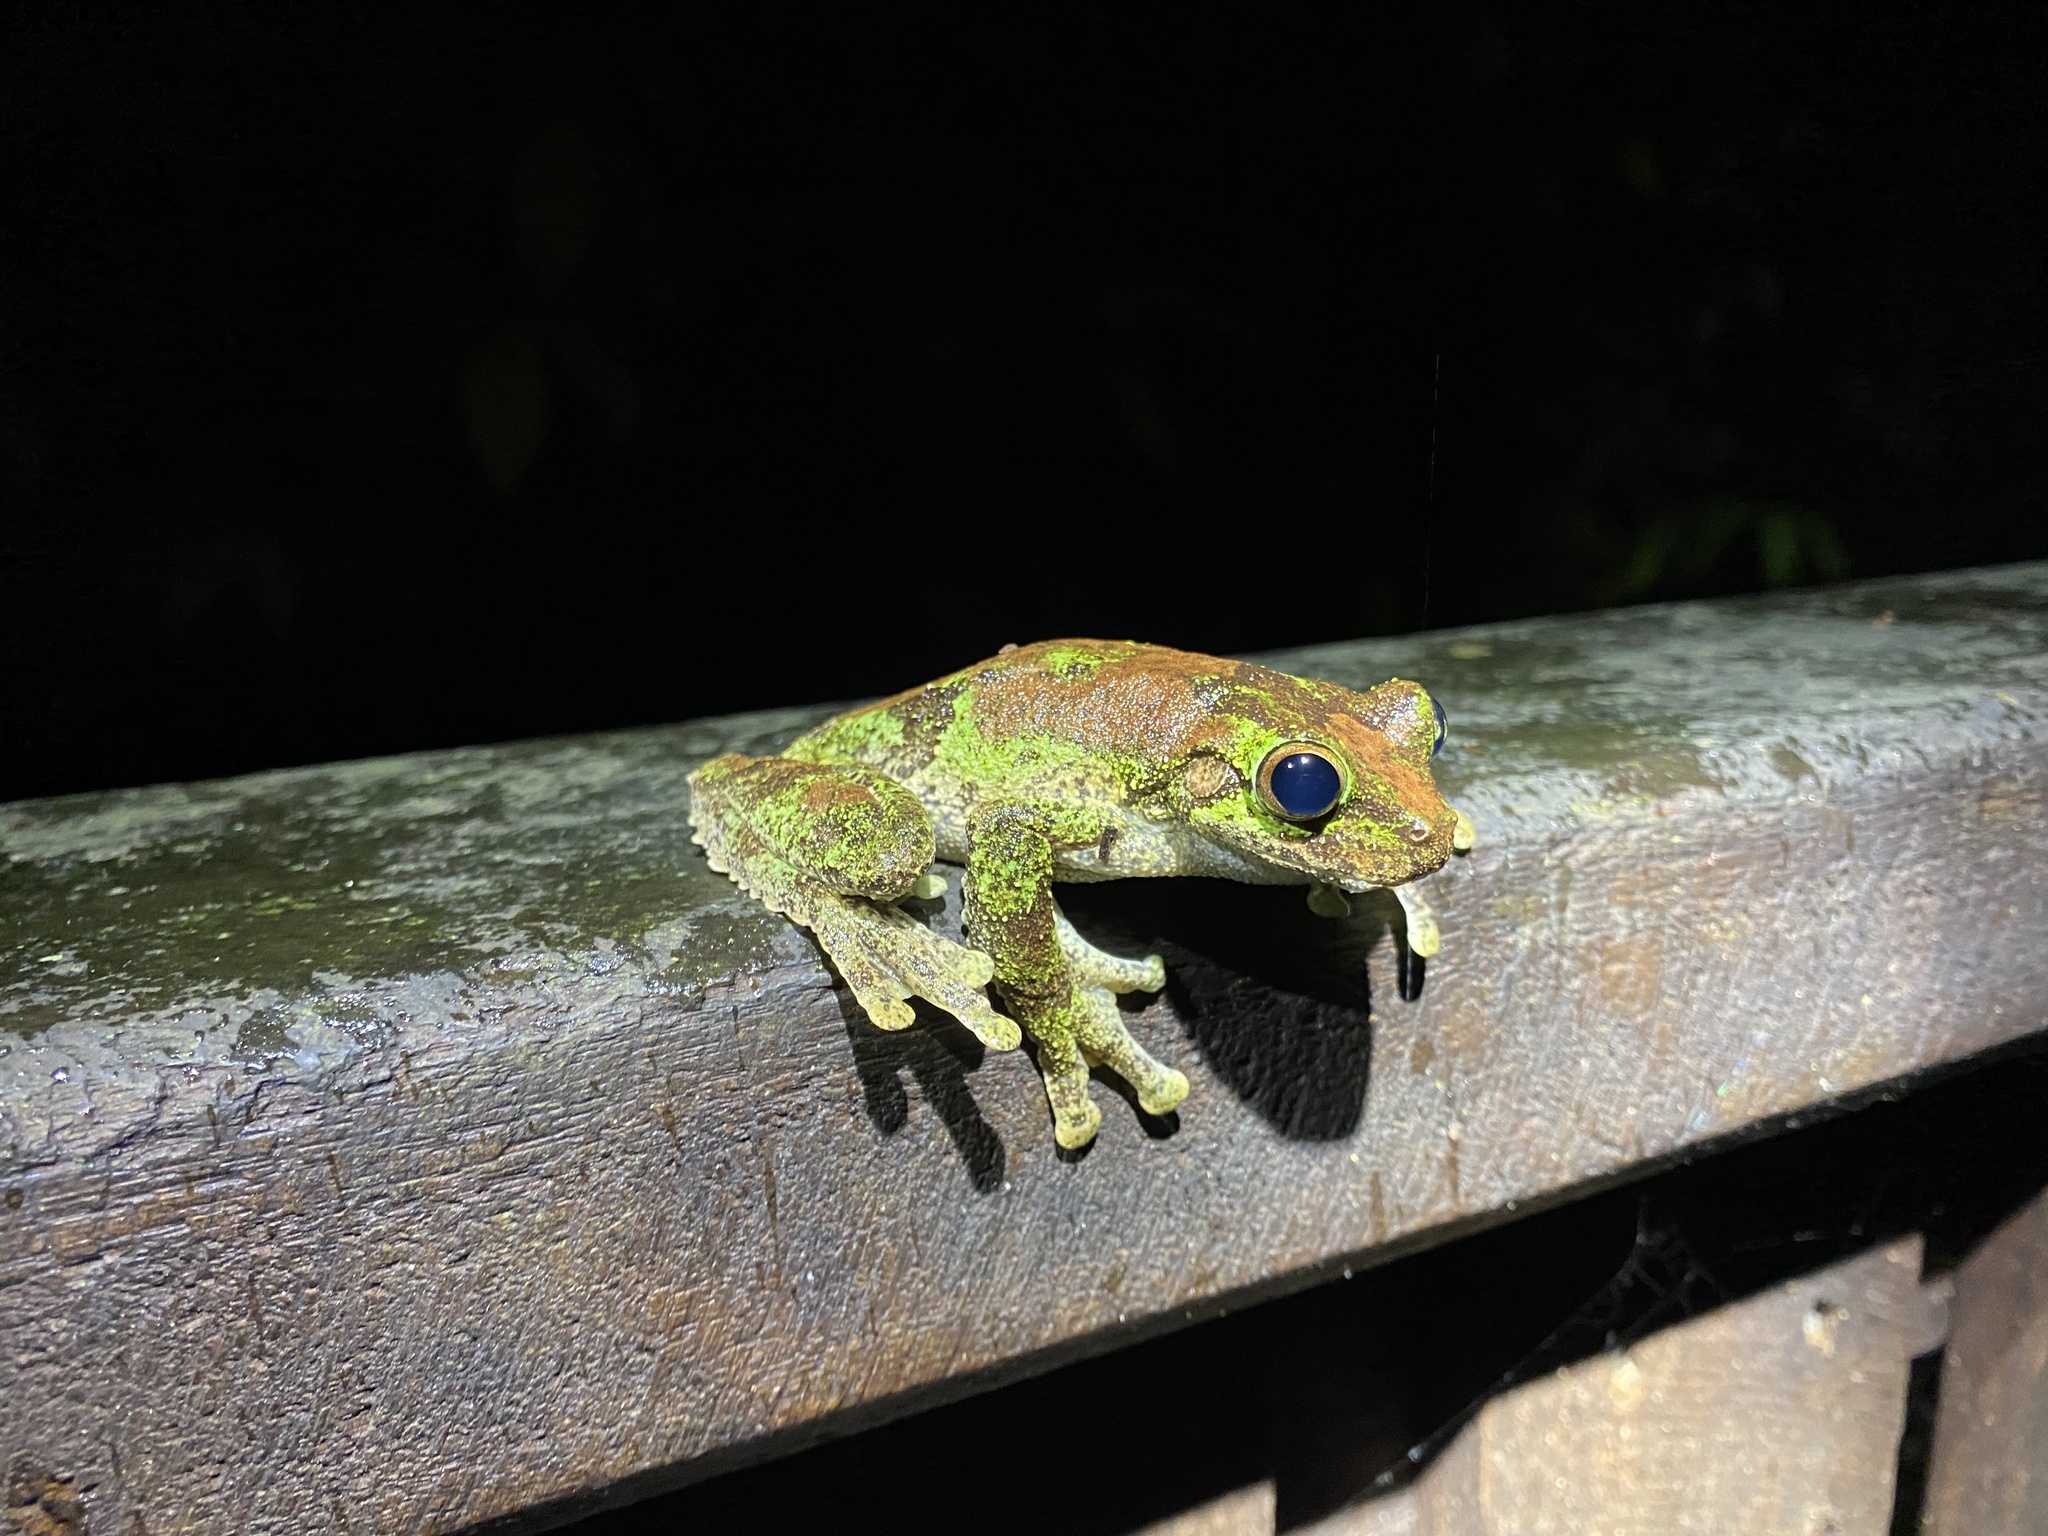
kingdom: Animalia
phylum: Chordata
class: Amphibia
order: Anura
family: Pelodryadidae
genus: Ranoidea
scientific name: Ranoidea serrata
